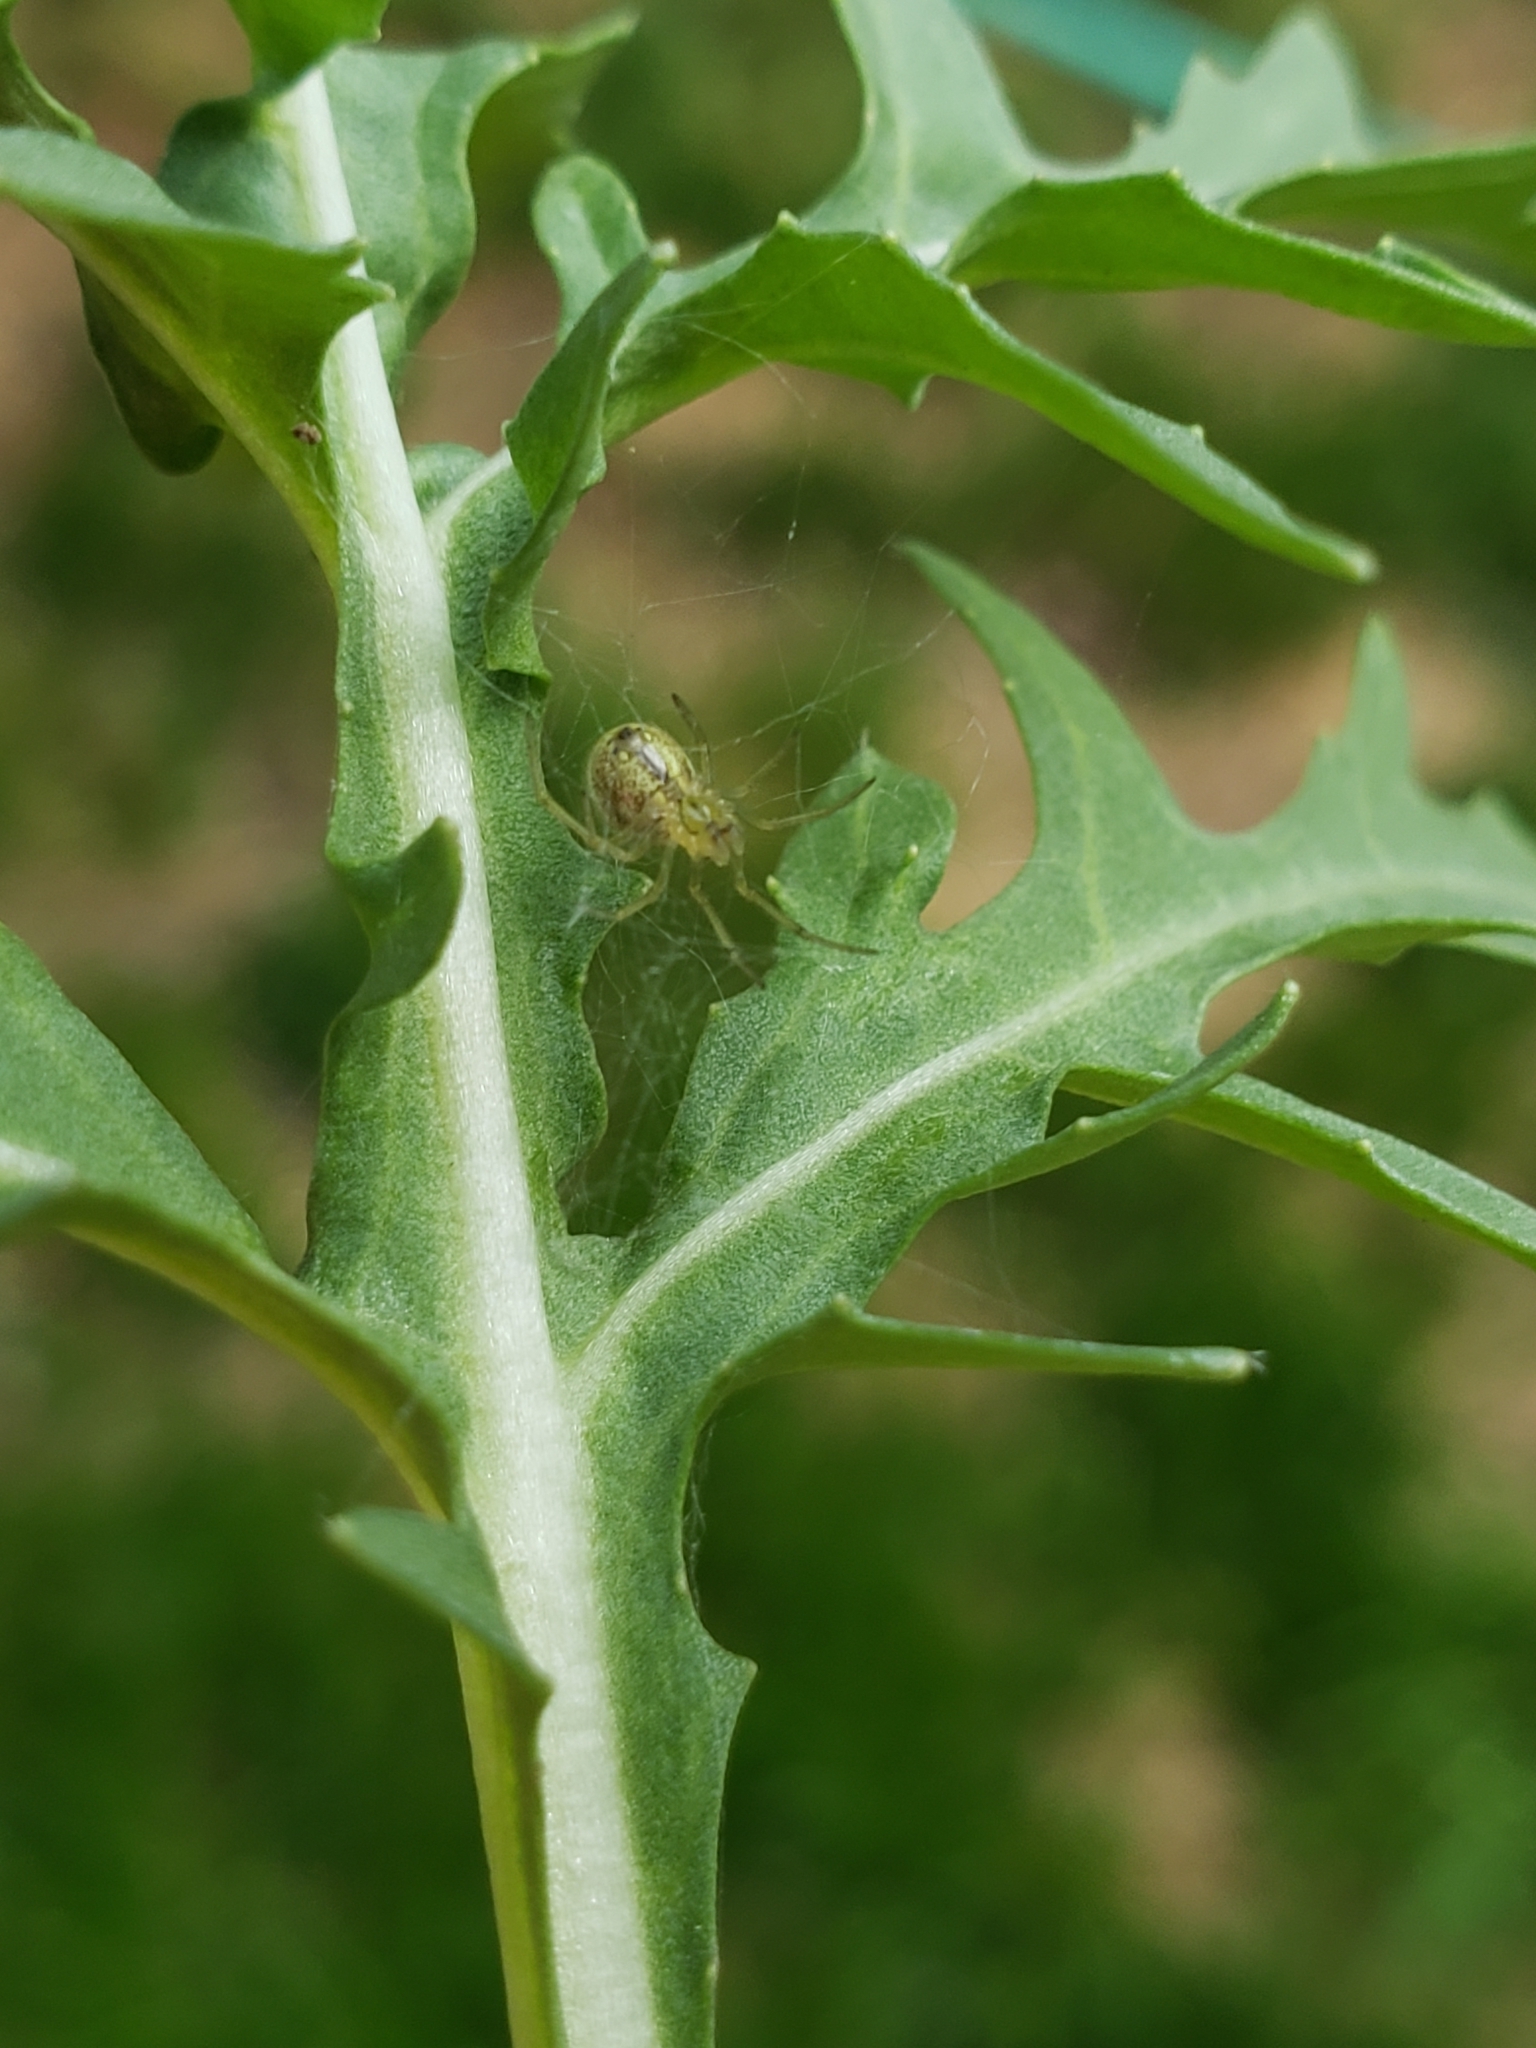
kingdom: Animalia
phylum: Arthropoda
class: Arachnida
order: Araneae
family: Theridiidae
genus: Enoplognatha
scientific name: Enoplognatha ovata
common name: Common candy-striped spider
